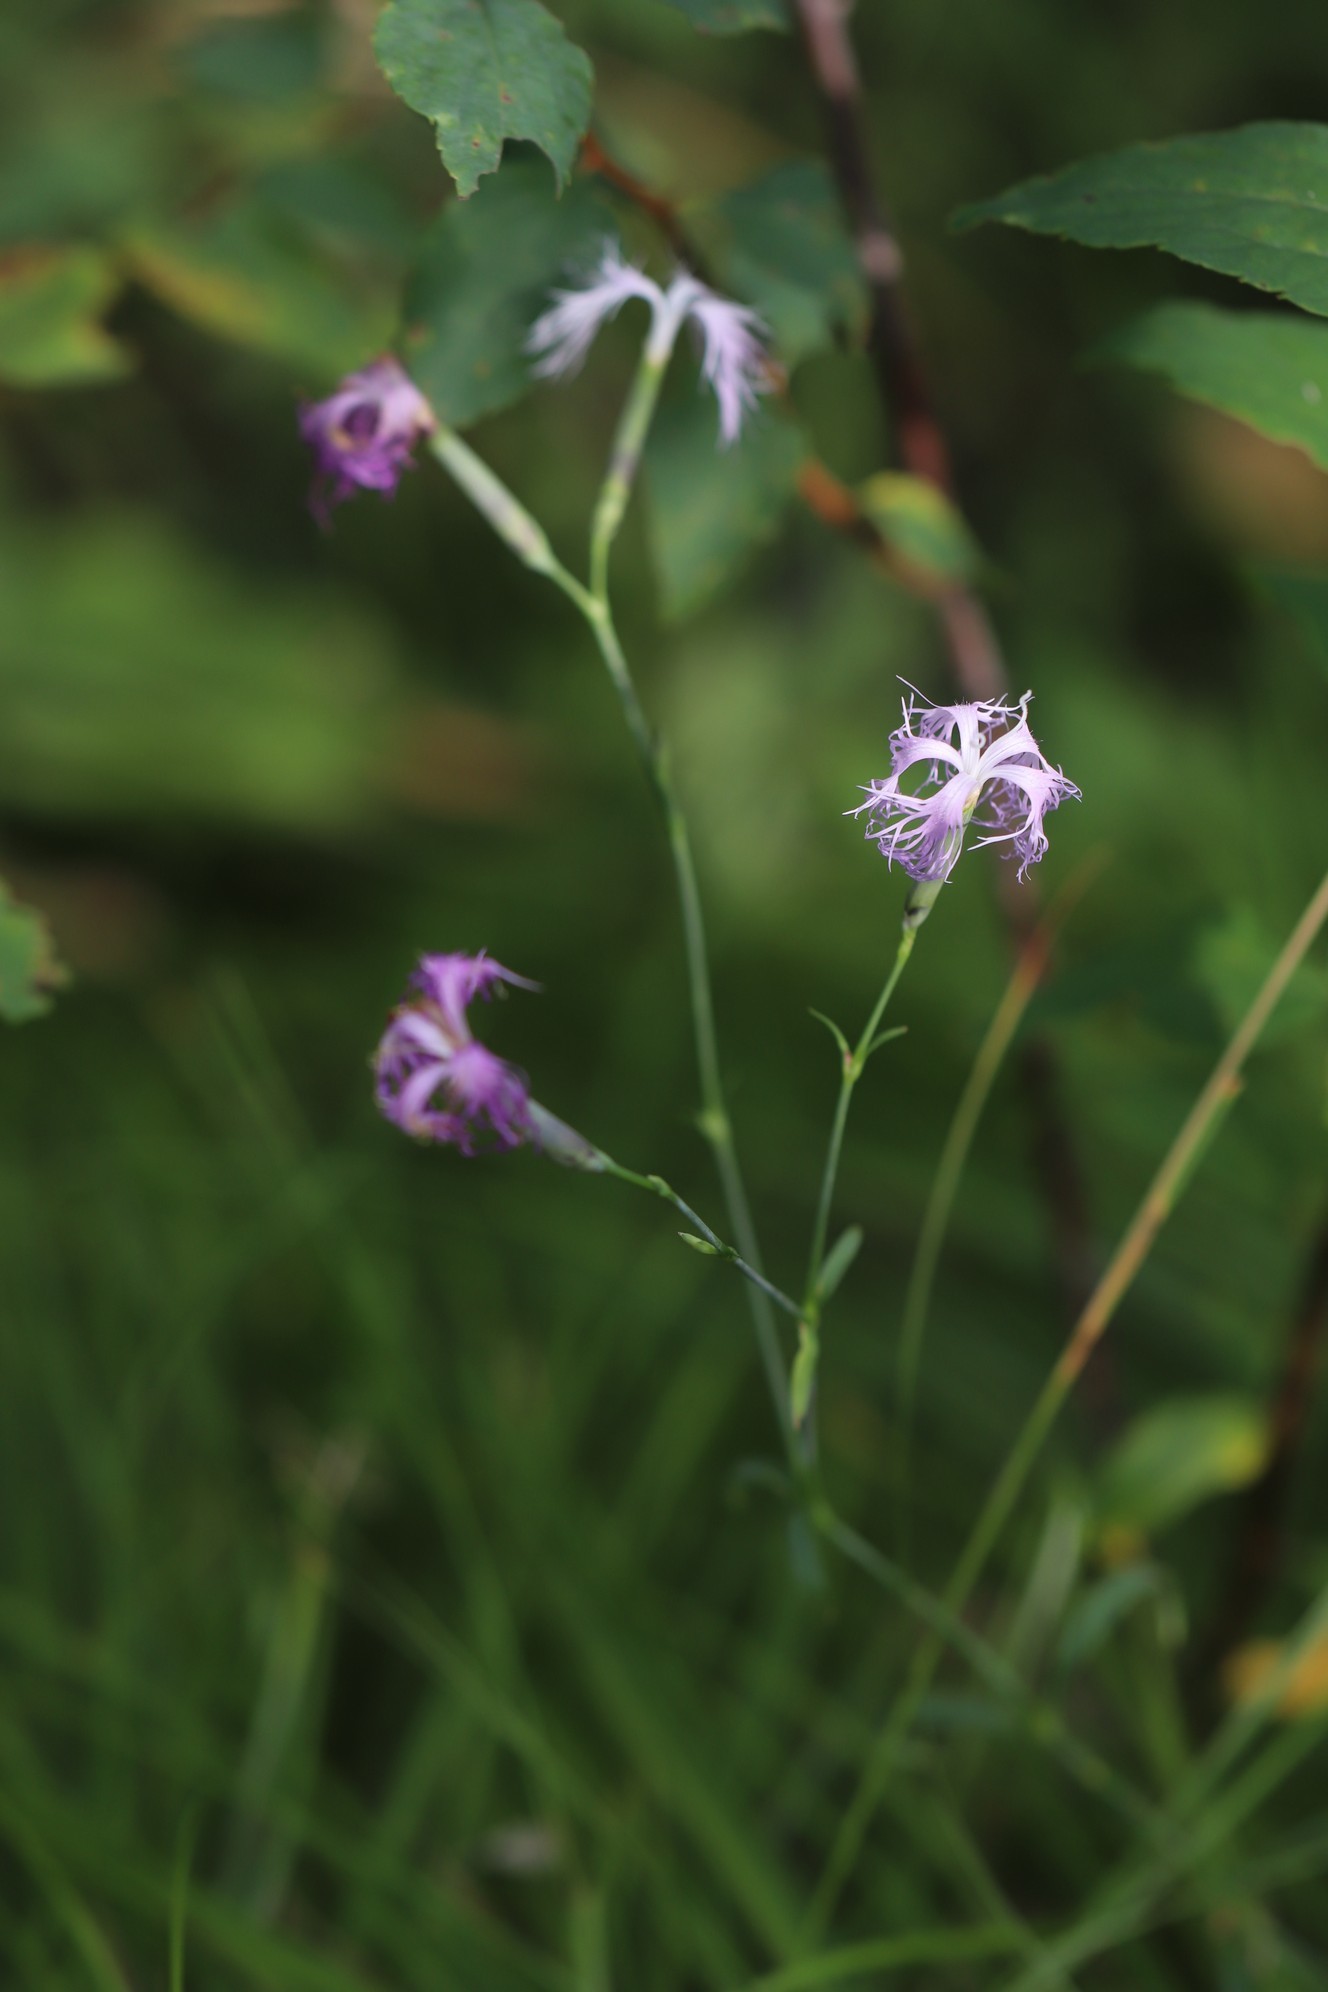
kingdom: Plantae
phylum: Tracheophyta
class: Magnoliopsida
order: Caryophyllales
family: Caryophyllaceae
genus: Dianthus
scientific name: Dianthus superbus
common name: Fringed pink
